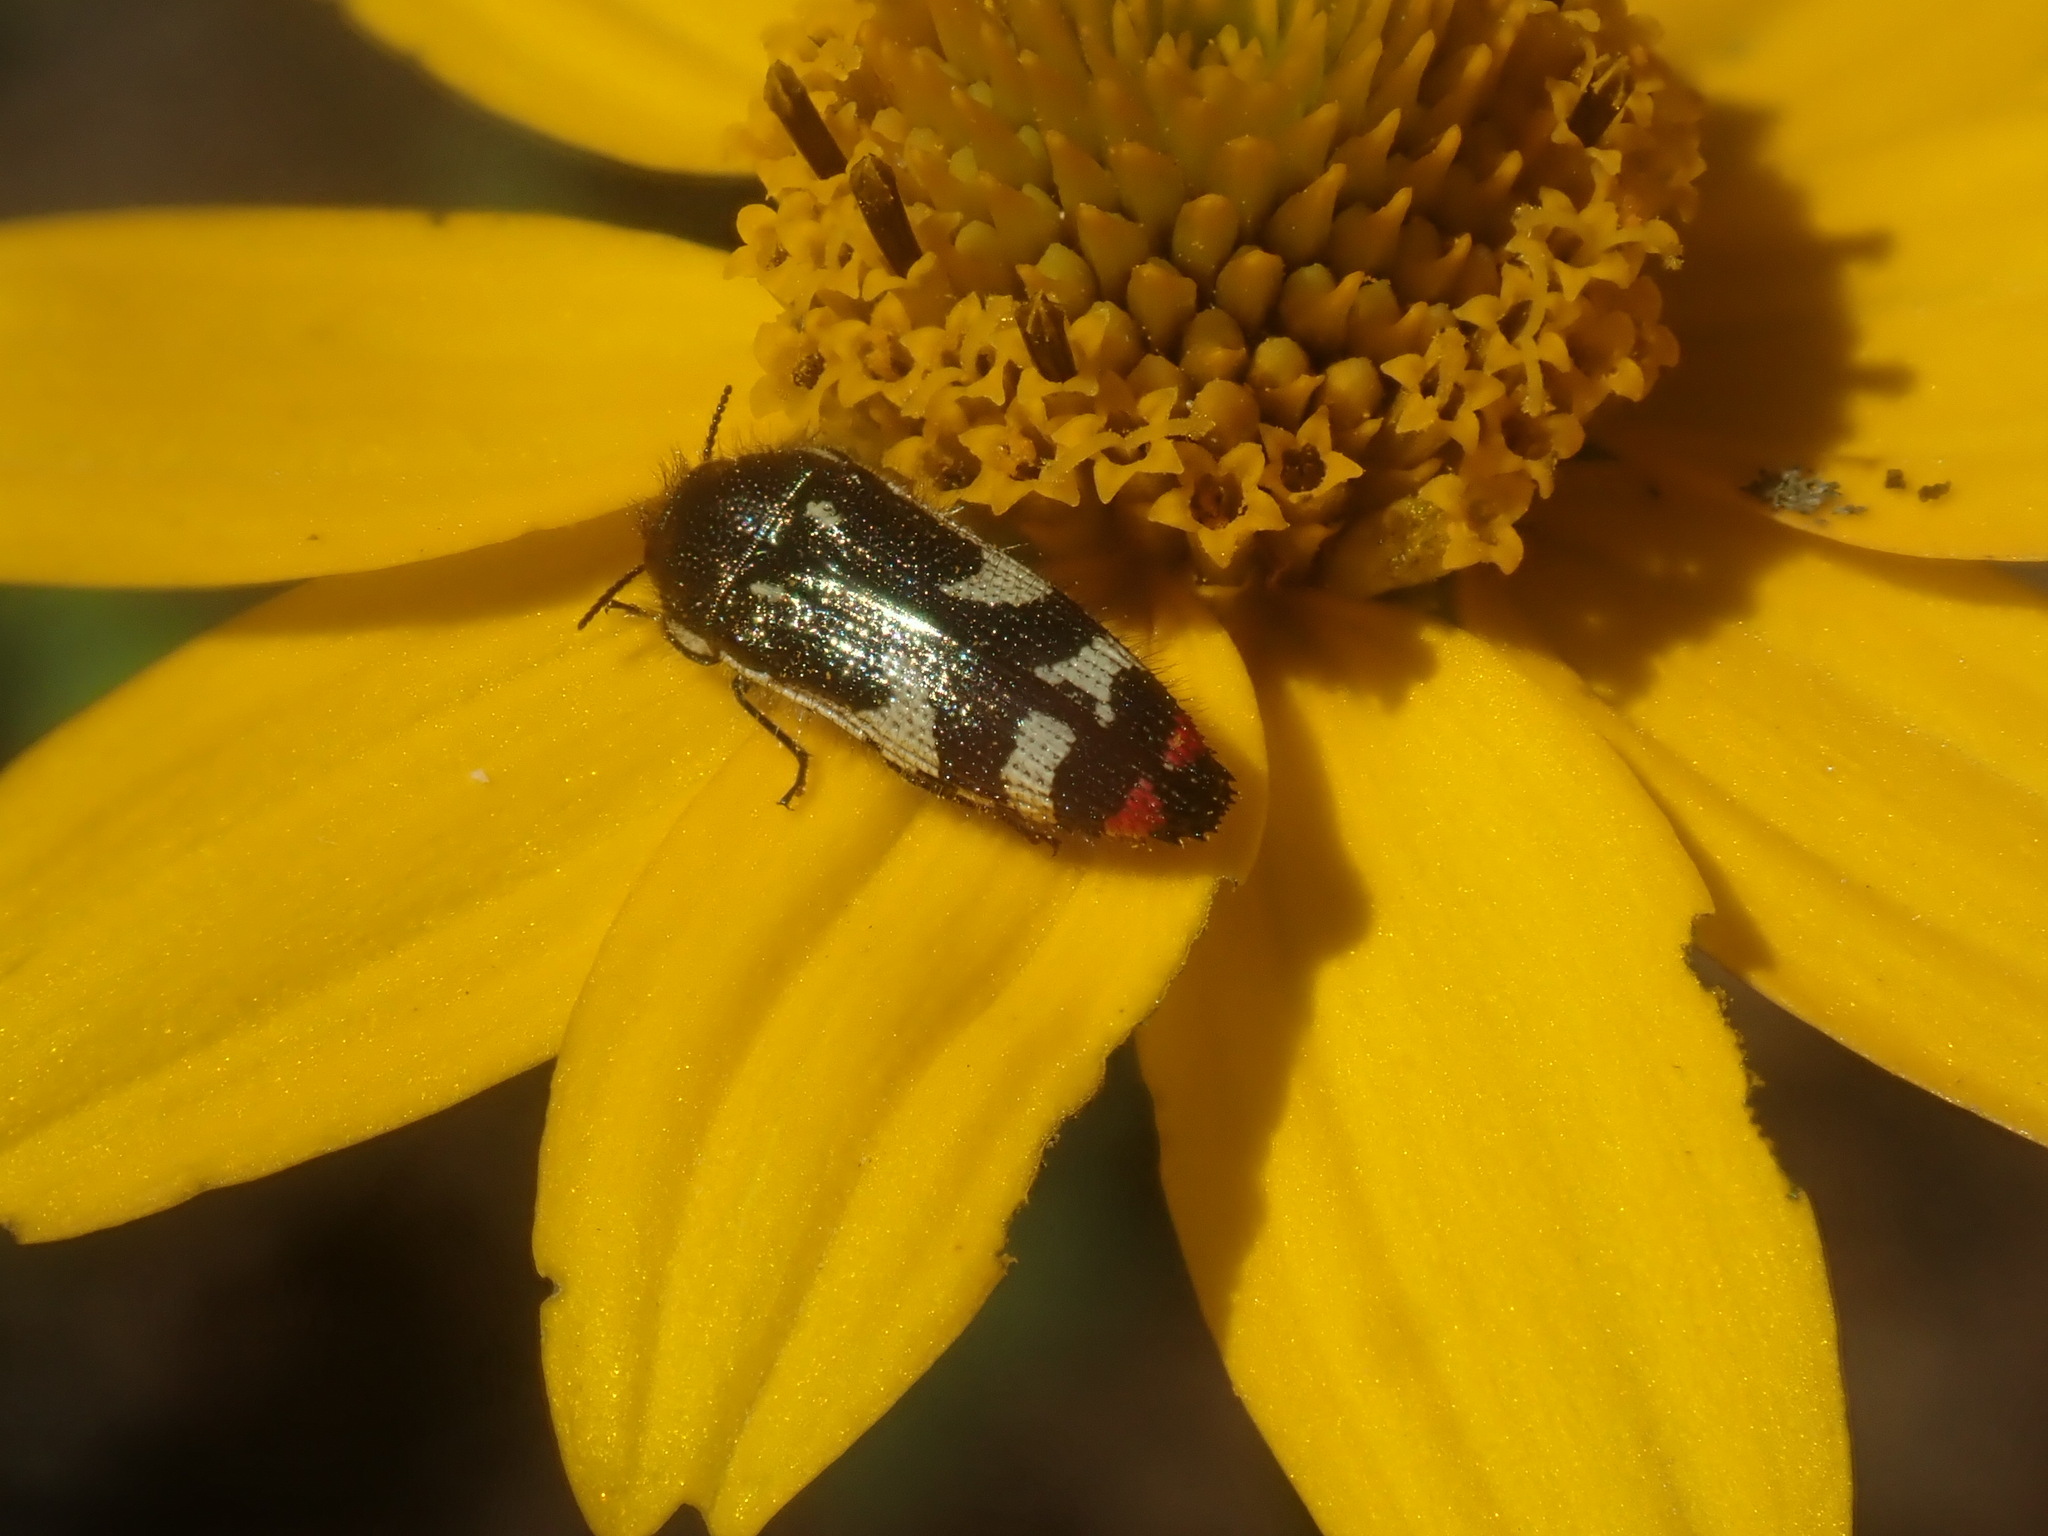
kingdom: Animalia
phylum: Arthropoda
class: Insecta
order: Coleoptera
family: Buprestidae
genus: Acmaeodera
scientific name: Acmaeodera amabilis
